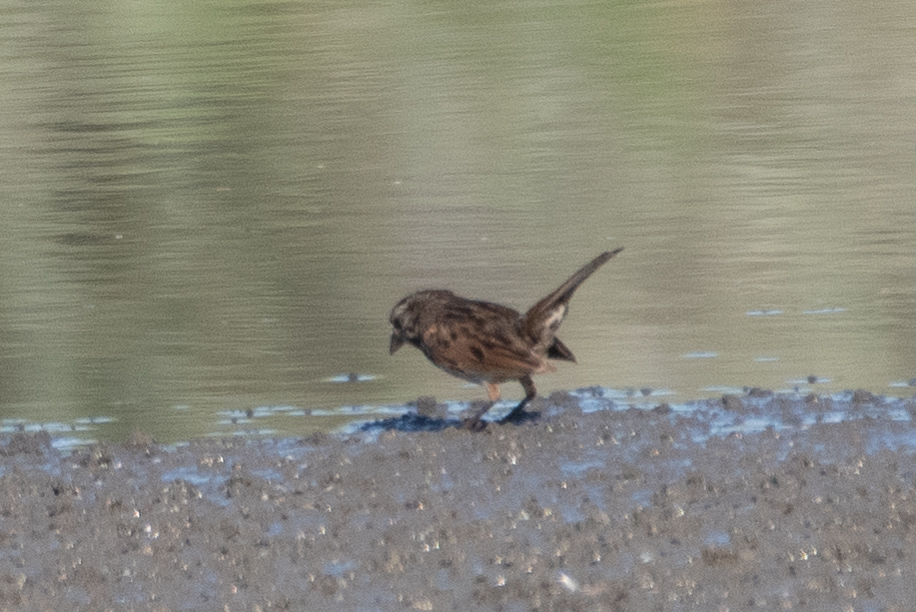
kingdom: Animalia
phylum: Chordata
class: Aves
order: Passeriformes
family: Passerellidae
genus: Melospiza
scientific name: Melospiza melodia
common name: Song sparrow
